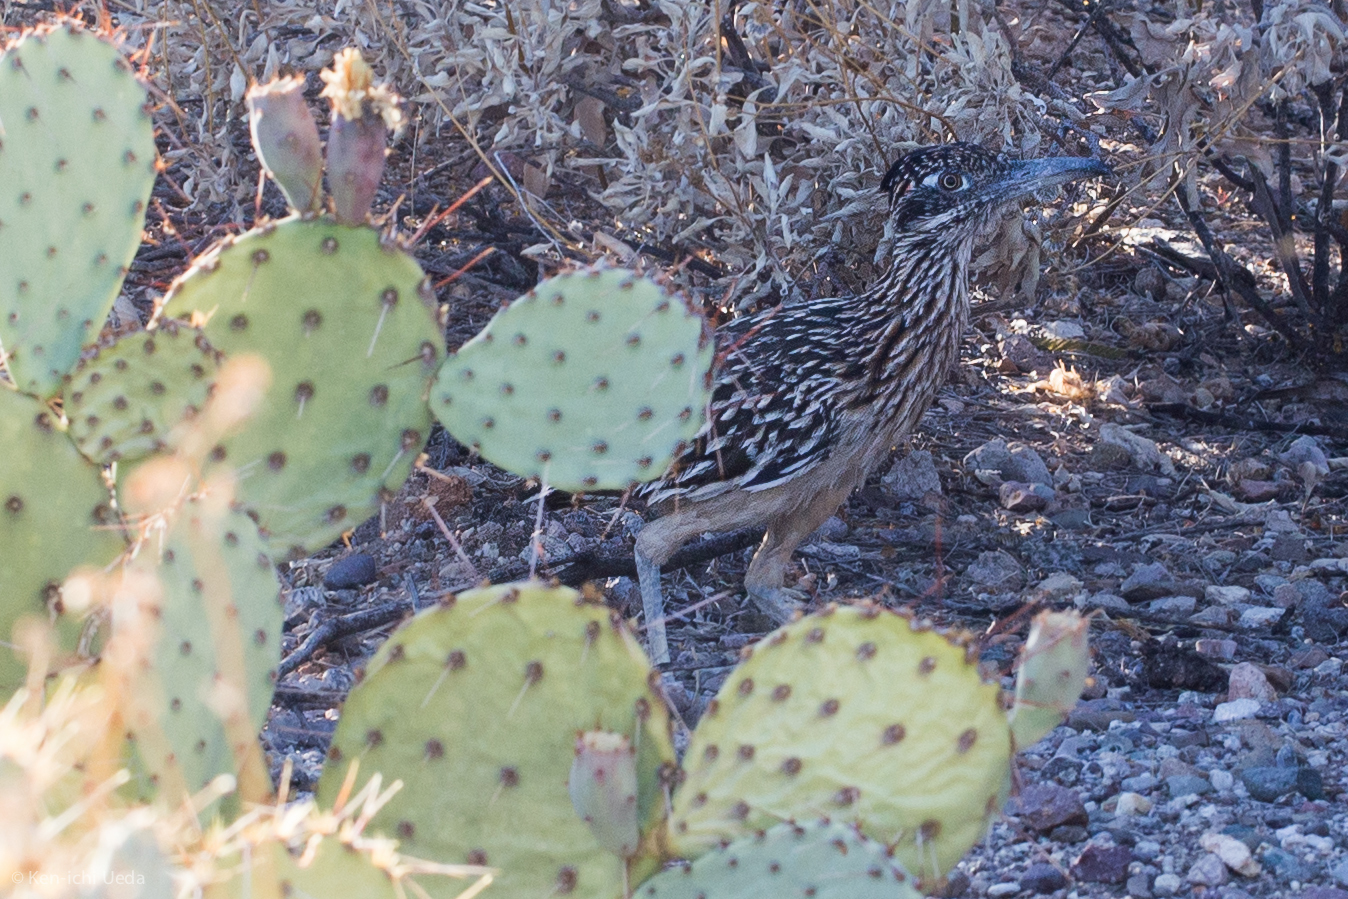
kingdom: Animalia
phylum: Chordata
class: Aves
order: Cuculiformes
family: Cuculidae
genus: Geococcyx
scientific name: Geococcyx californianus
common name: Greater roadrunner
